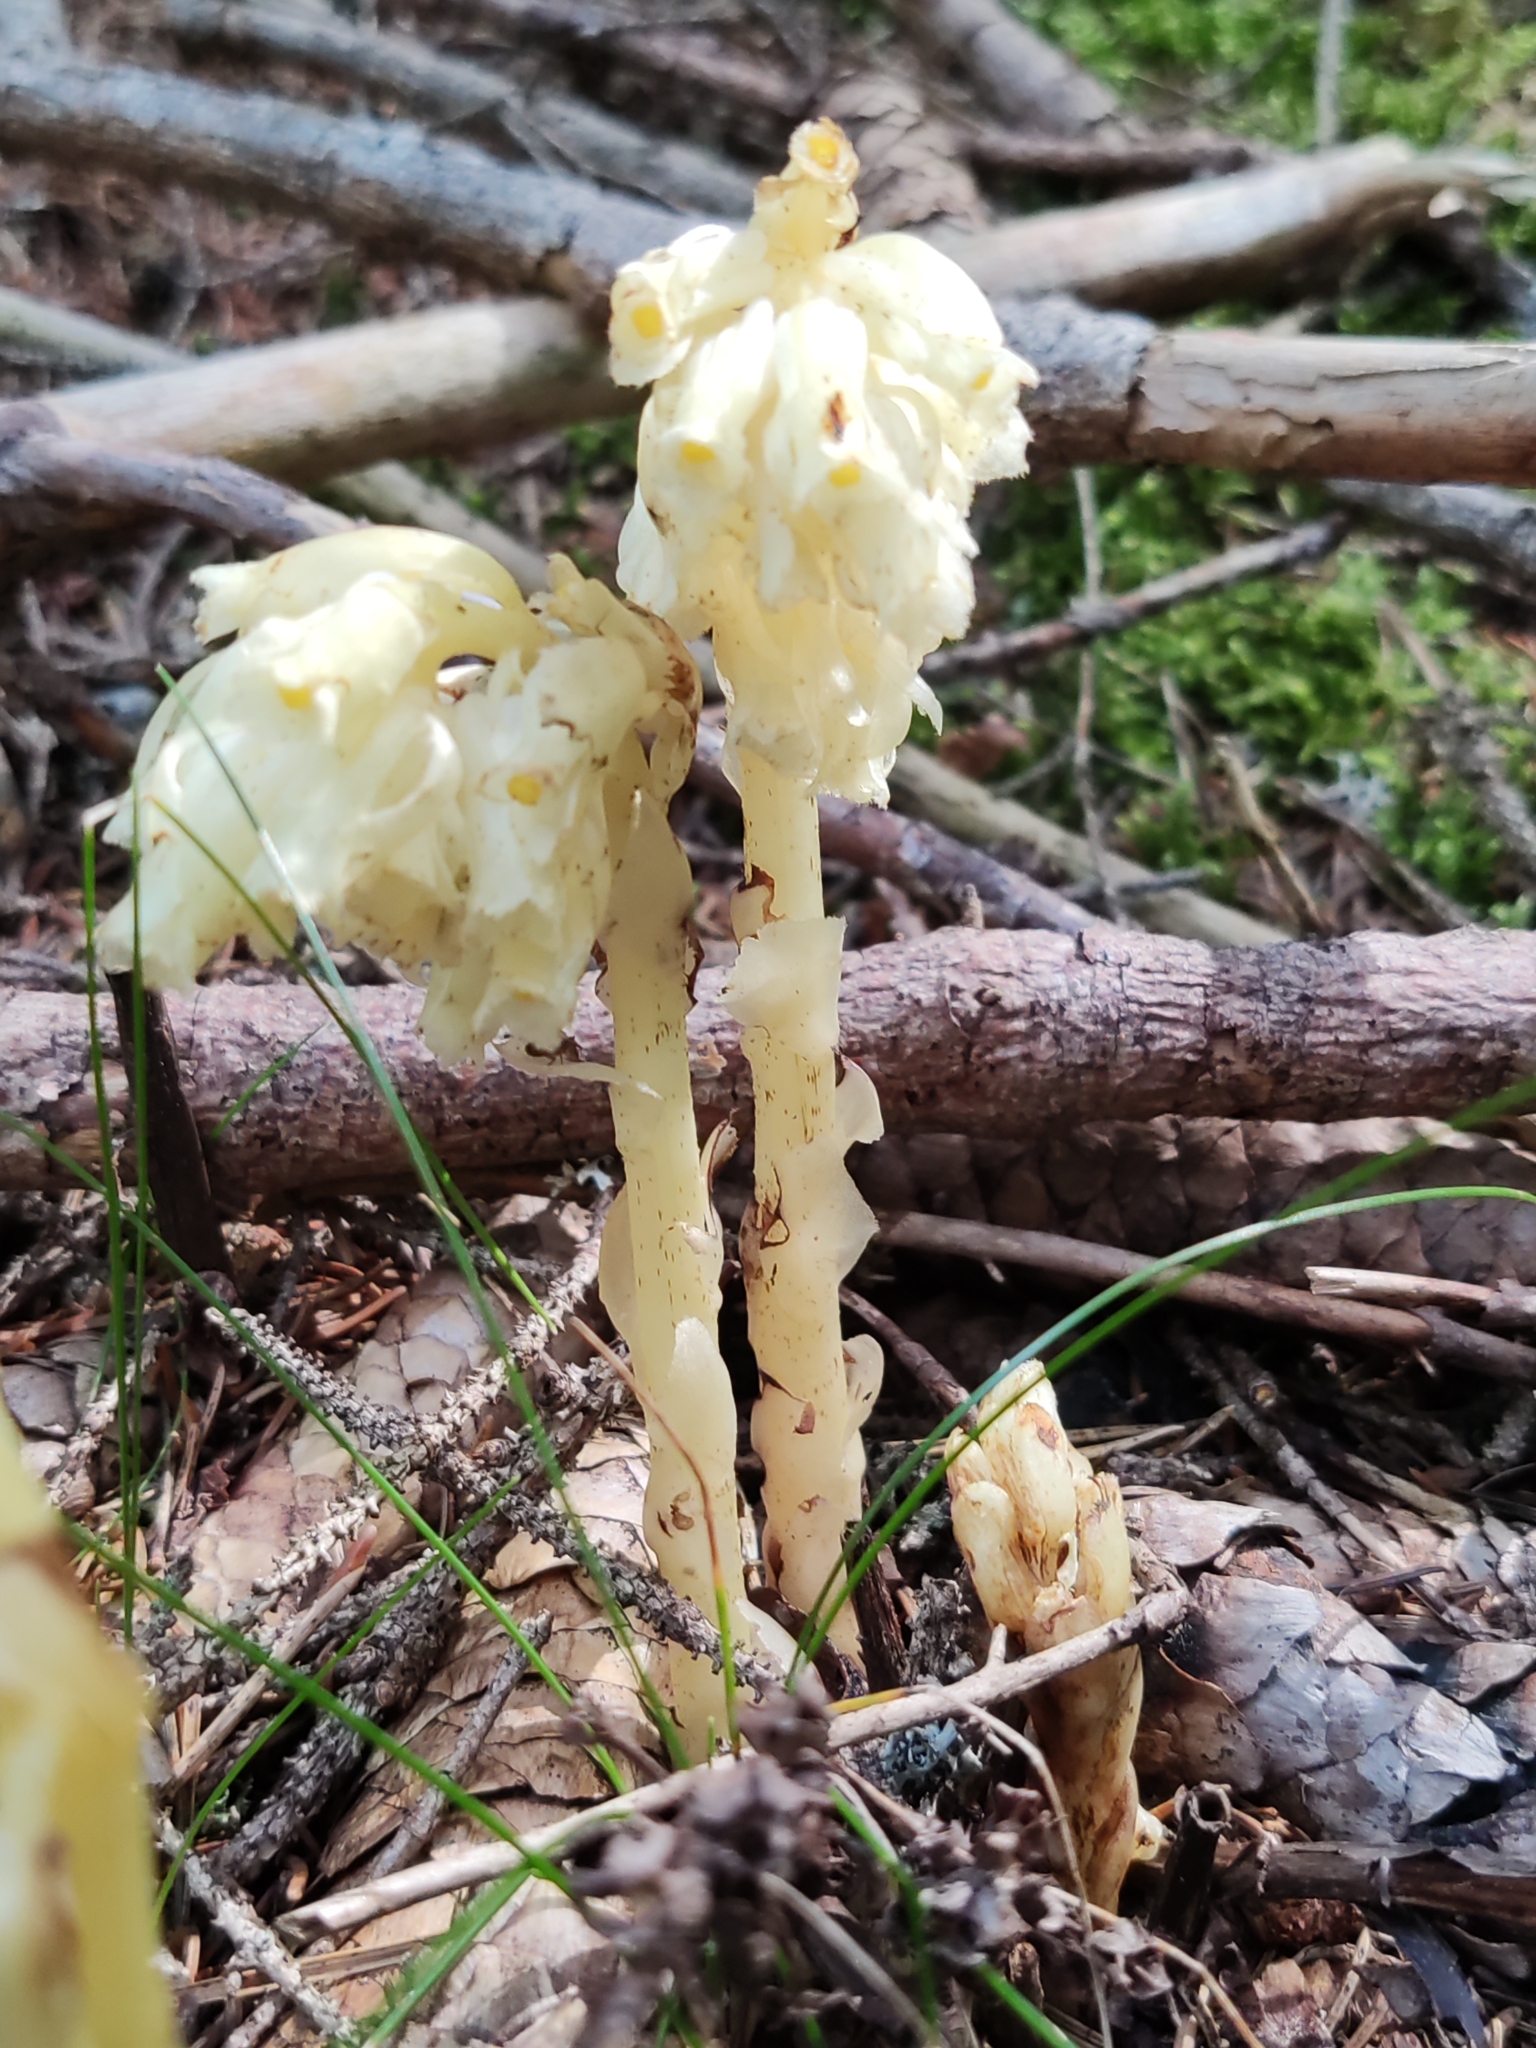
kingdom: Plantae
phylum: Tracheophyta
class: Magnoliopsida
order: Ericales
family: Ericaceae
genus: Hypopitys
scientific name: Hypopitys monotropa
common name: Yellow bird's-nest
